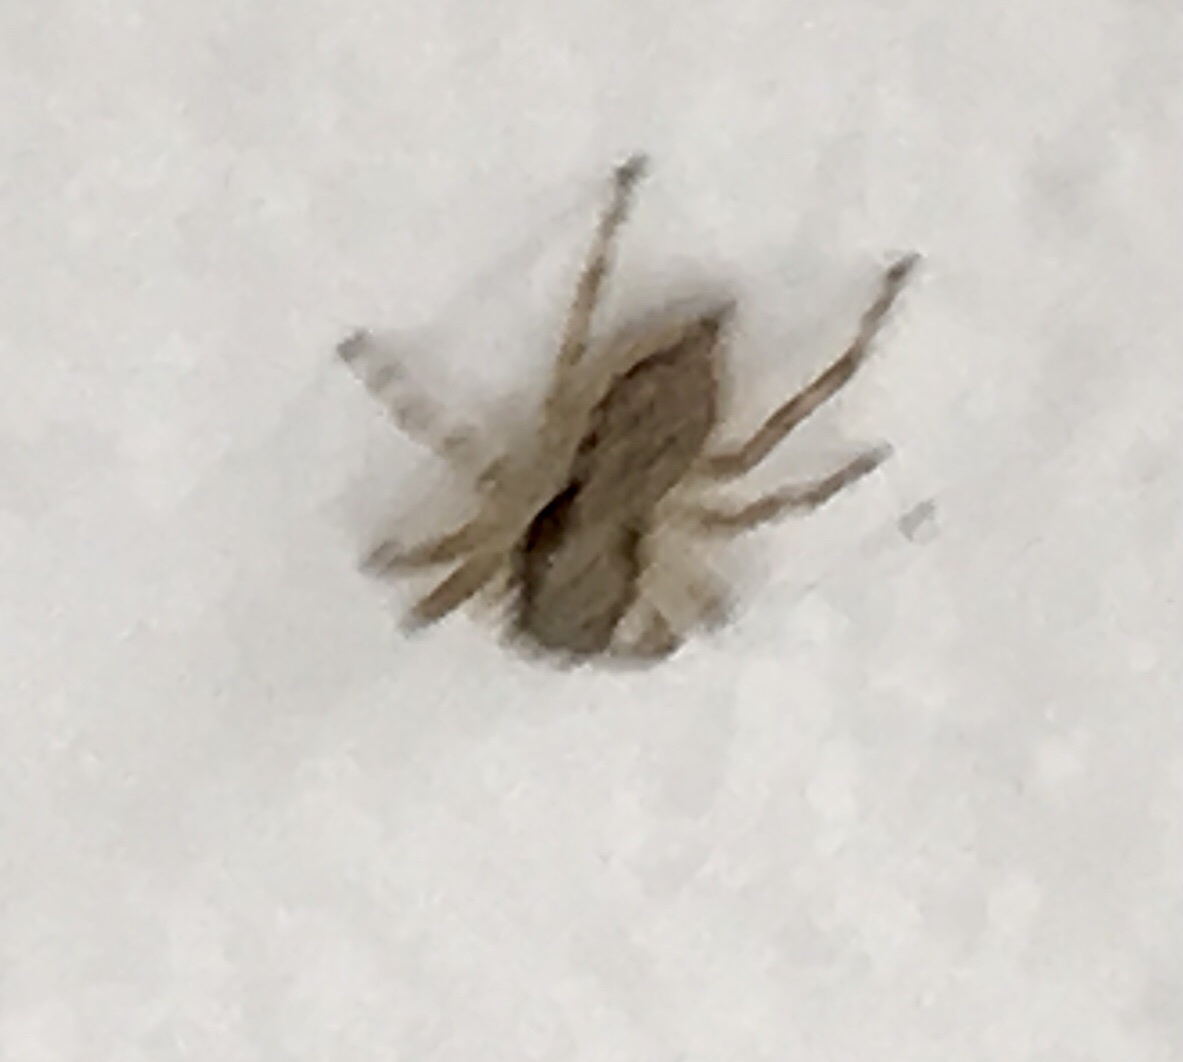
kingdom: Animalia
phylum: Arthropoda
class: Arachnida
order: Araneae
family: Salticidae
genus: Menemerus
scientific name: Menemerus bivittatus
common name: Gray wall jumper
